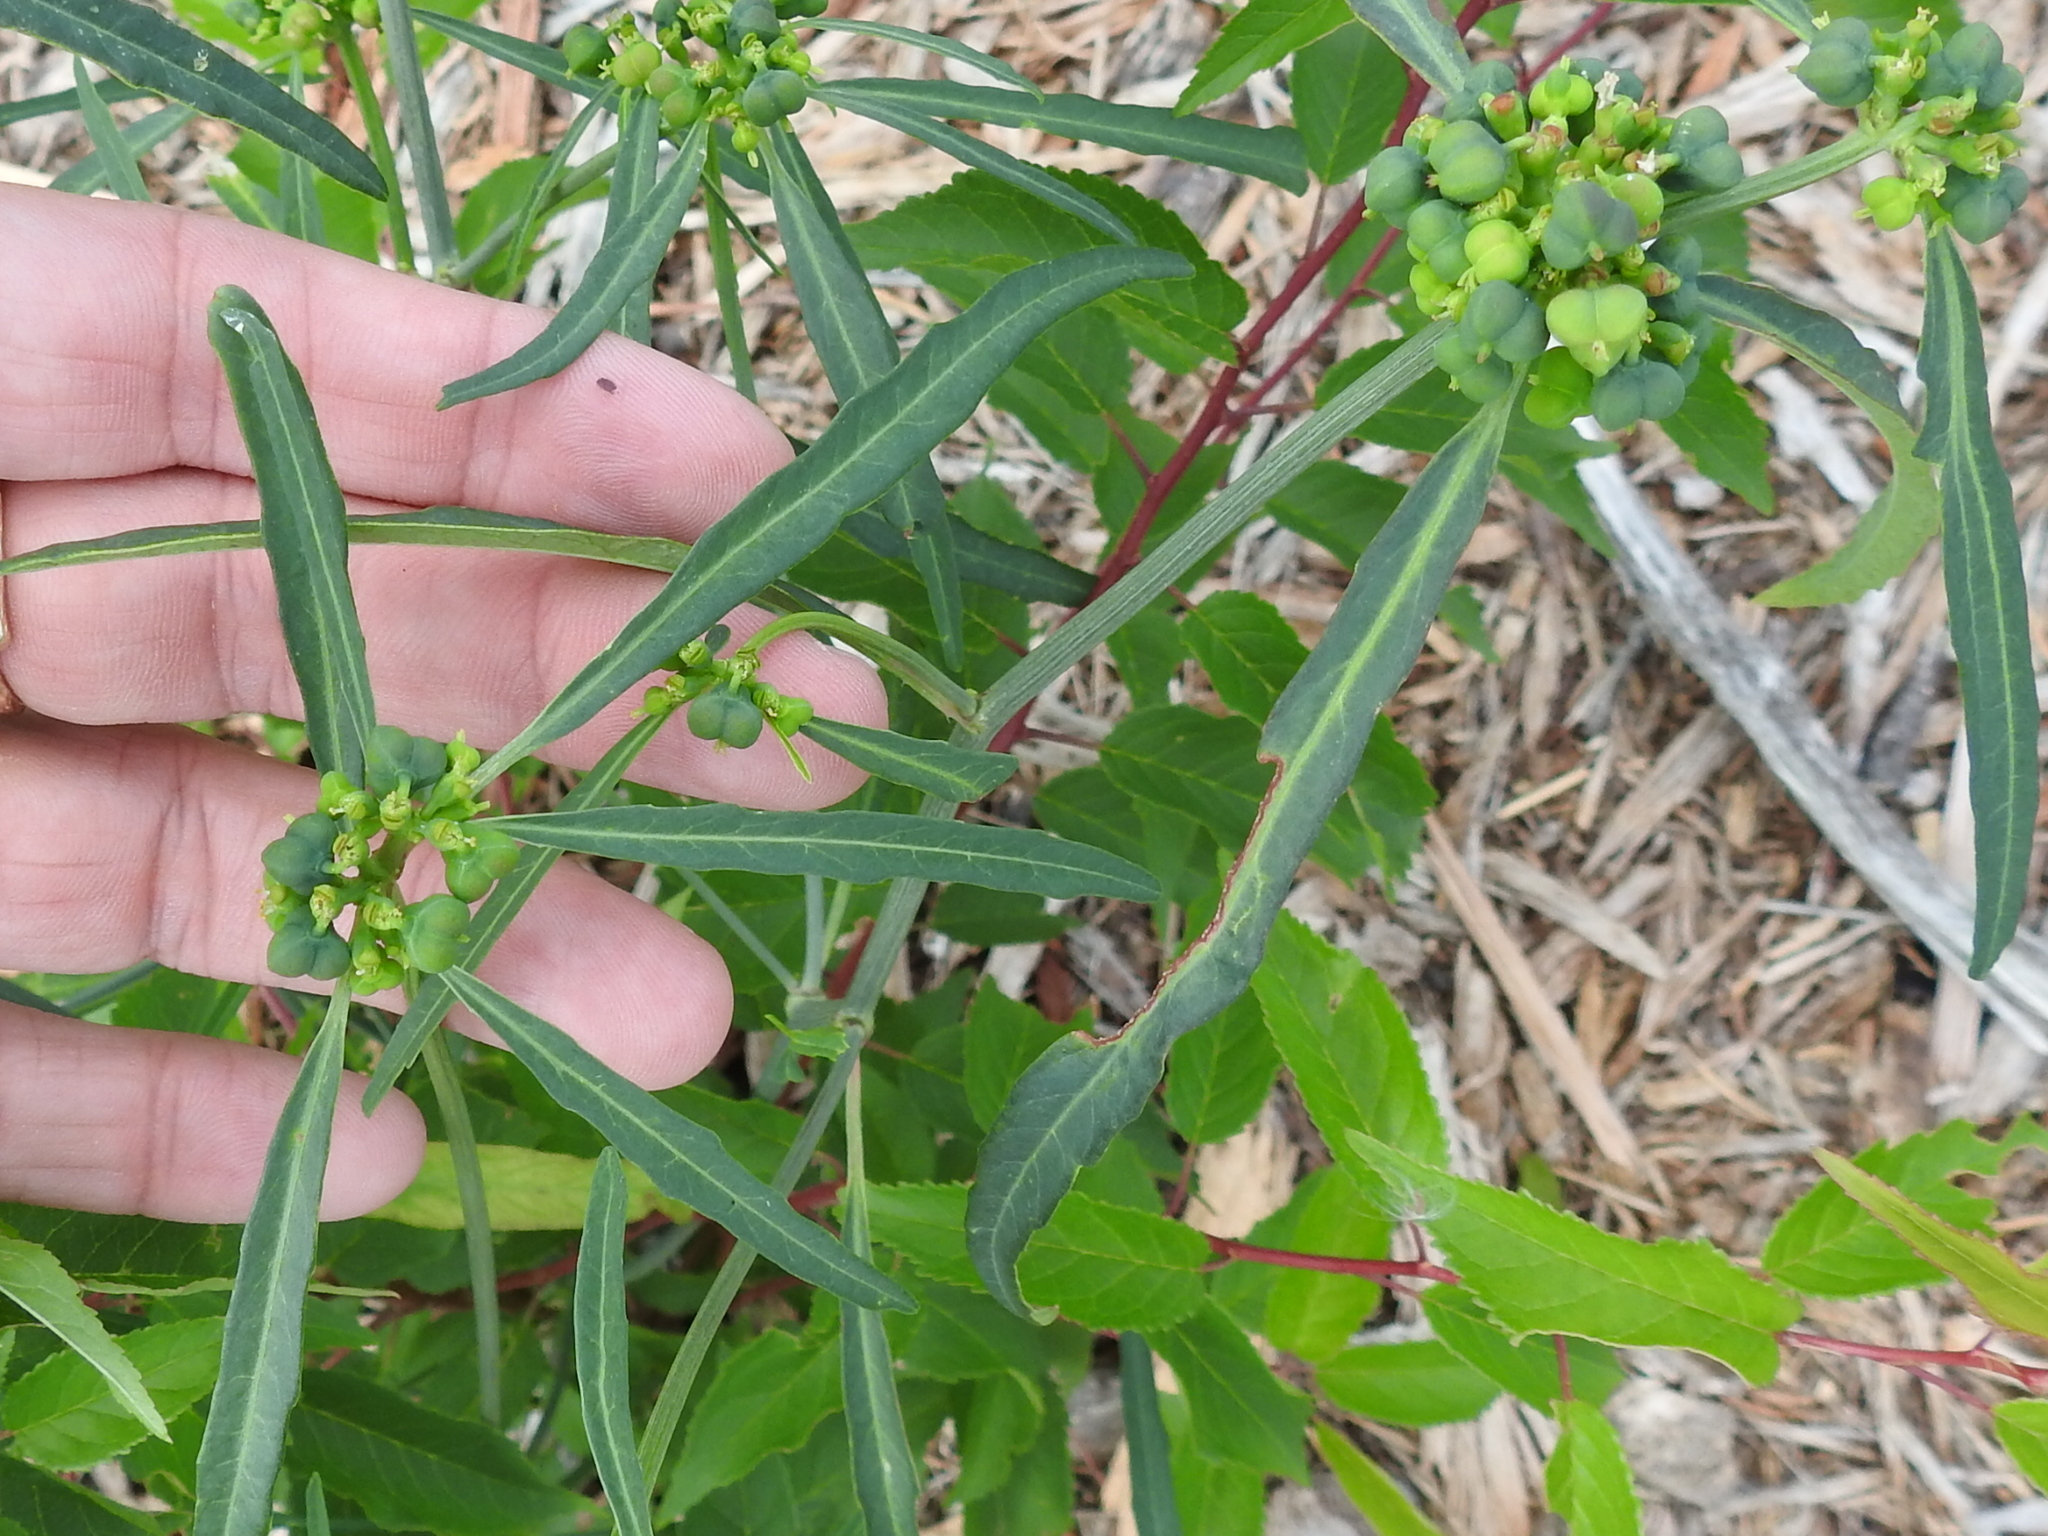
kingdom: Plantae
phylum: Tracheophyta
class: Magnoliopsida
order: Malpighiales
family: Euphorbiaceae
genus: Euphorbia
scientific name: Euphorbia heterophylla
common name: Mexican fireplant
